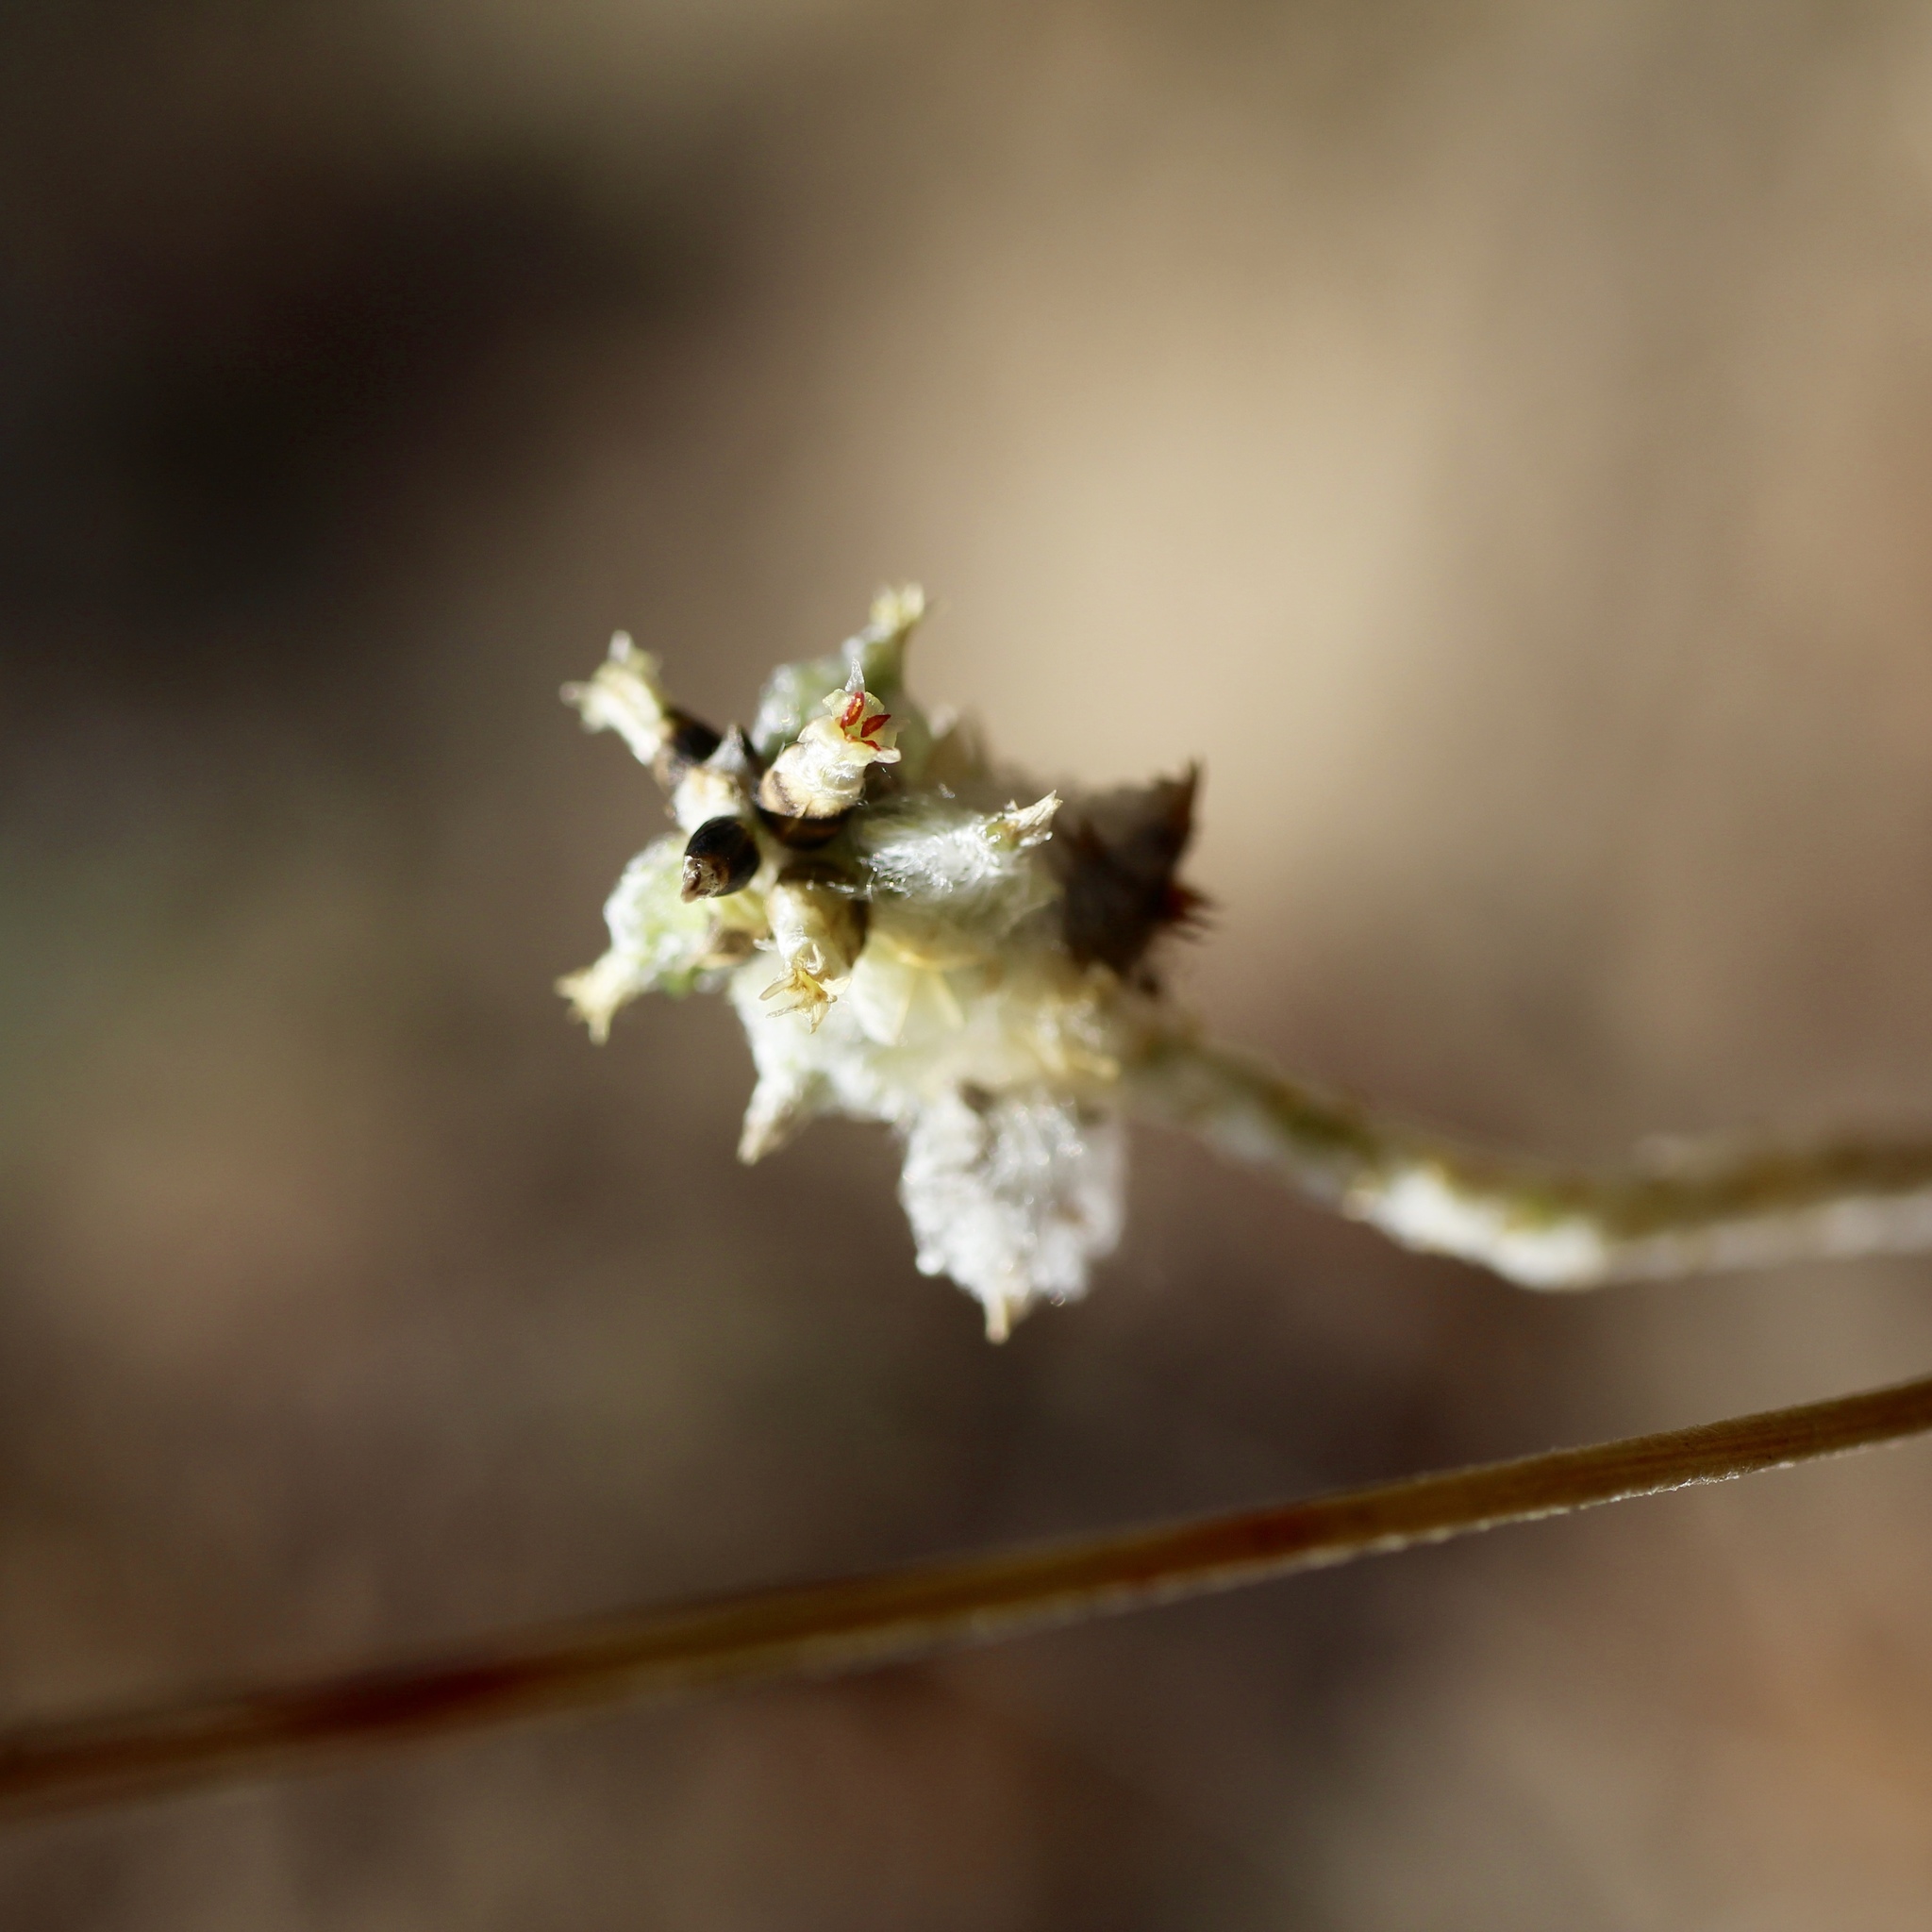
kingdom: Plantae
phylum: Tracheophyta
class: Magnoliopsida
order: Caryophyllales
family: Amaranthaceae
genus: Froelichia
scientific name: Froelichia floridana
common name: Florida snake-cotton
